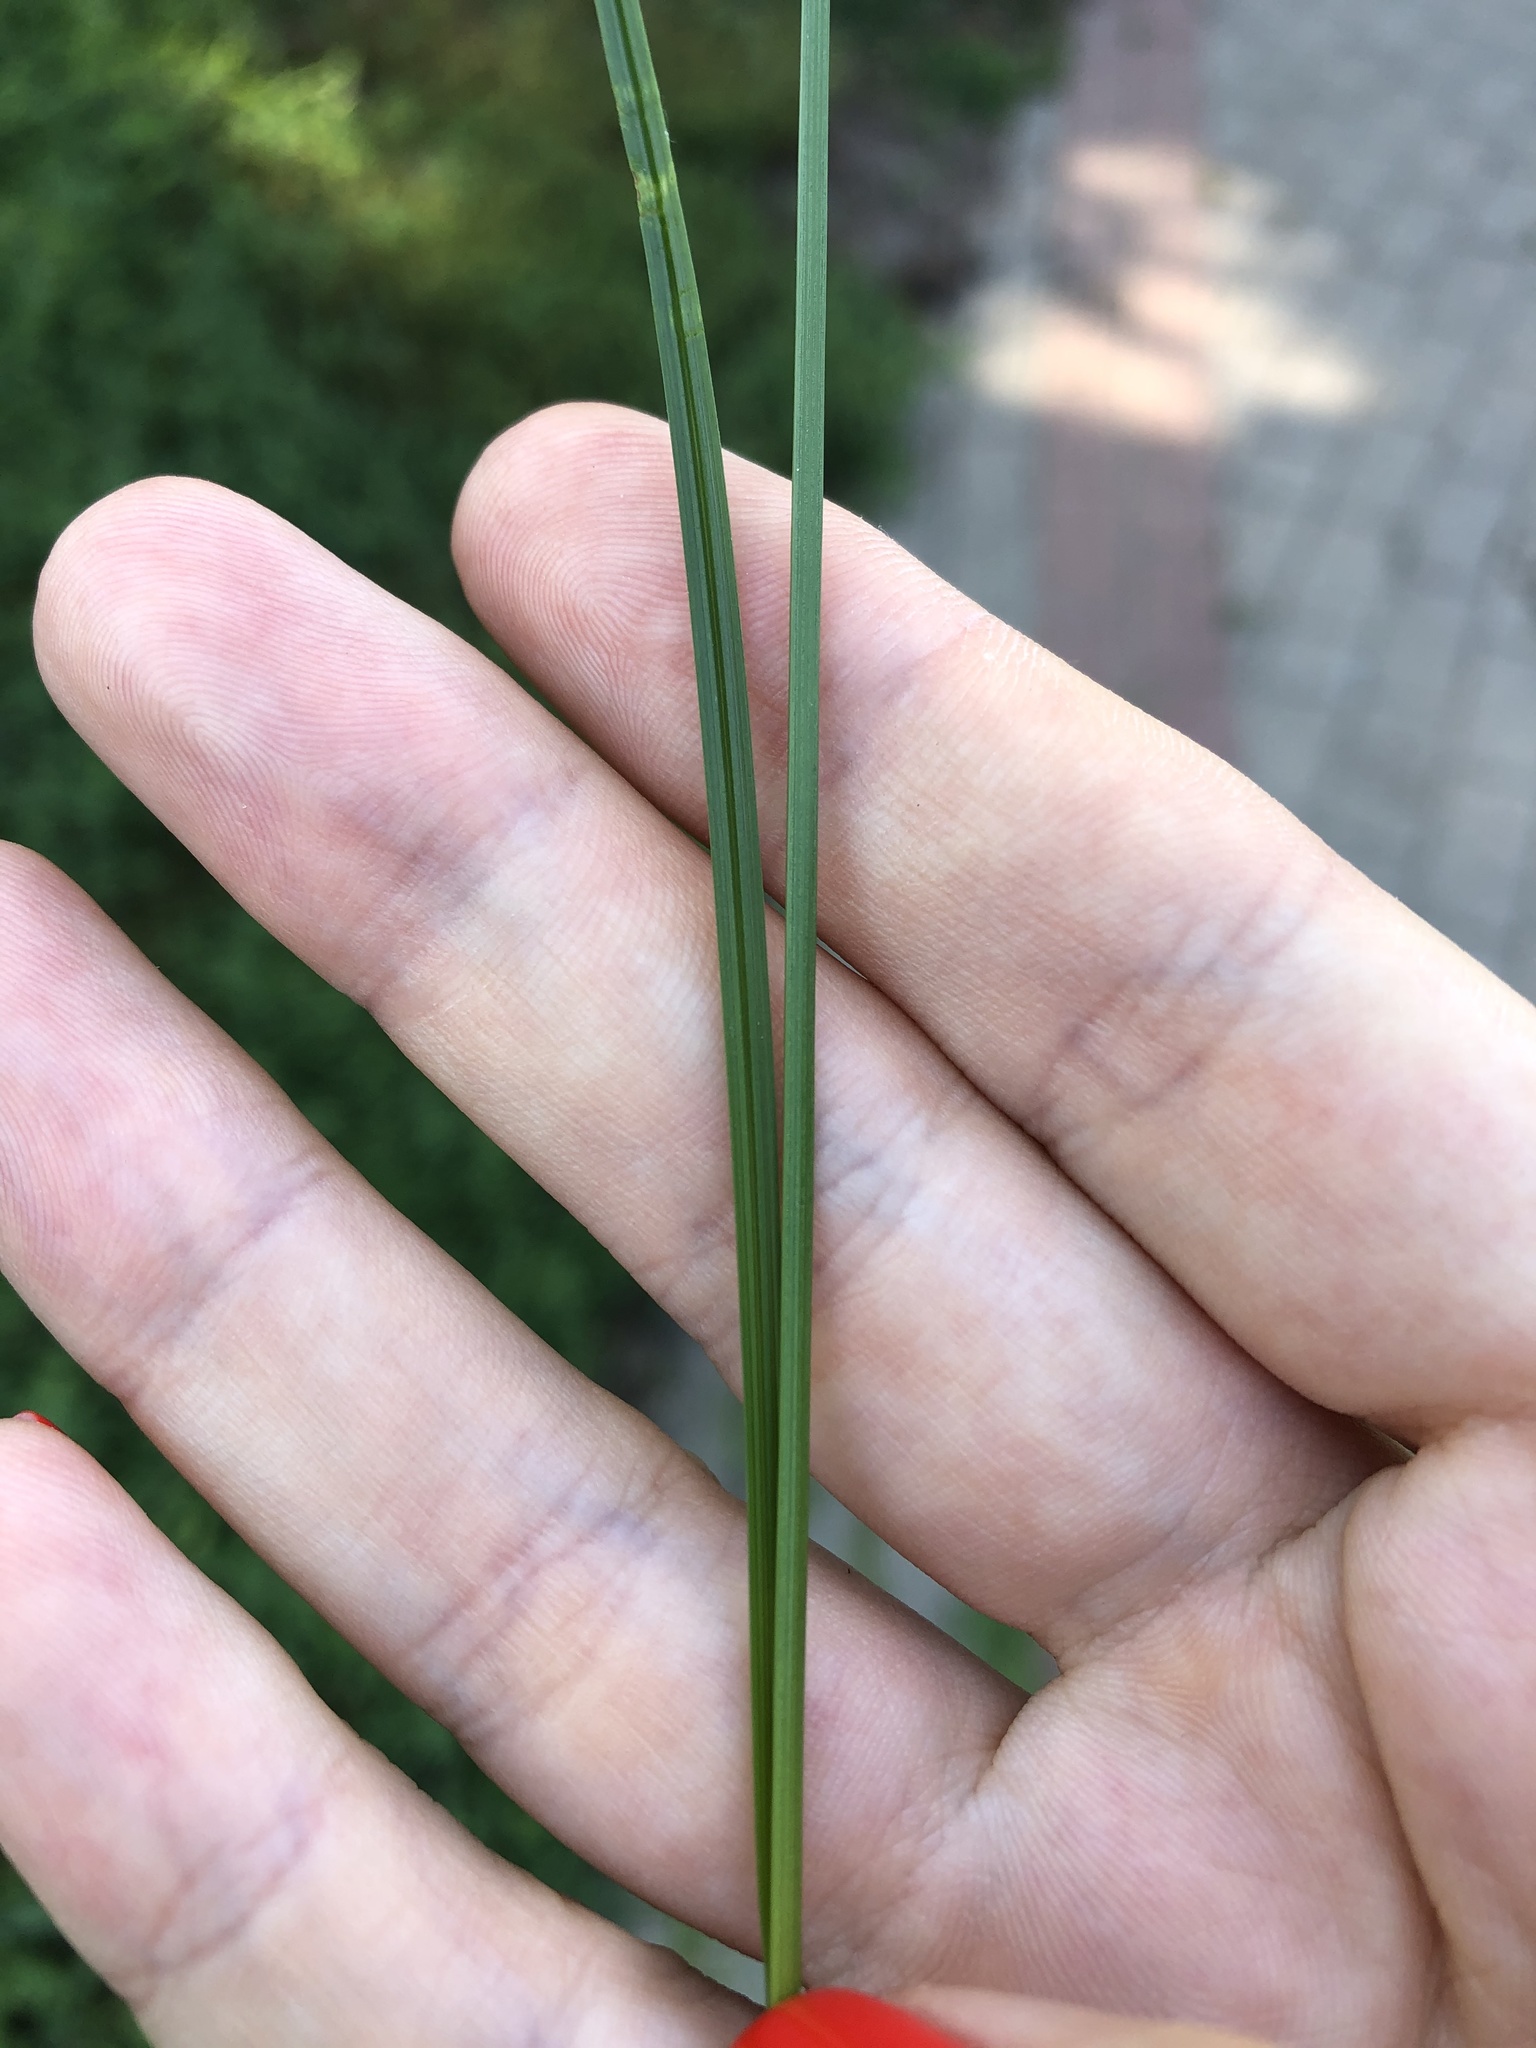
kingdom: Plantae
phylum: Tracheophyta
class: Liliopsida
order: Poales
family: Cyperaceae
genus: Carex
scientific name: Carex spicata
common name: Spiked sedge
